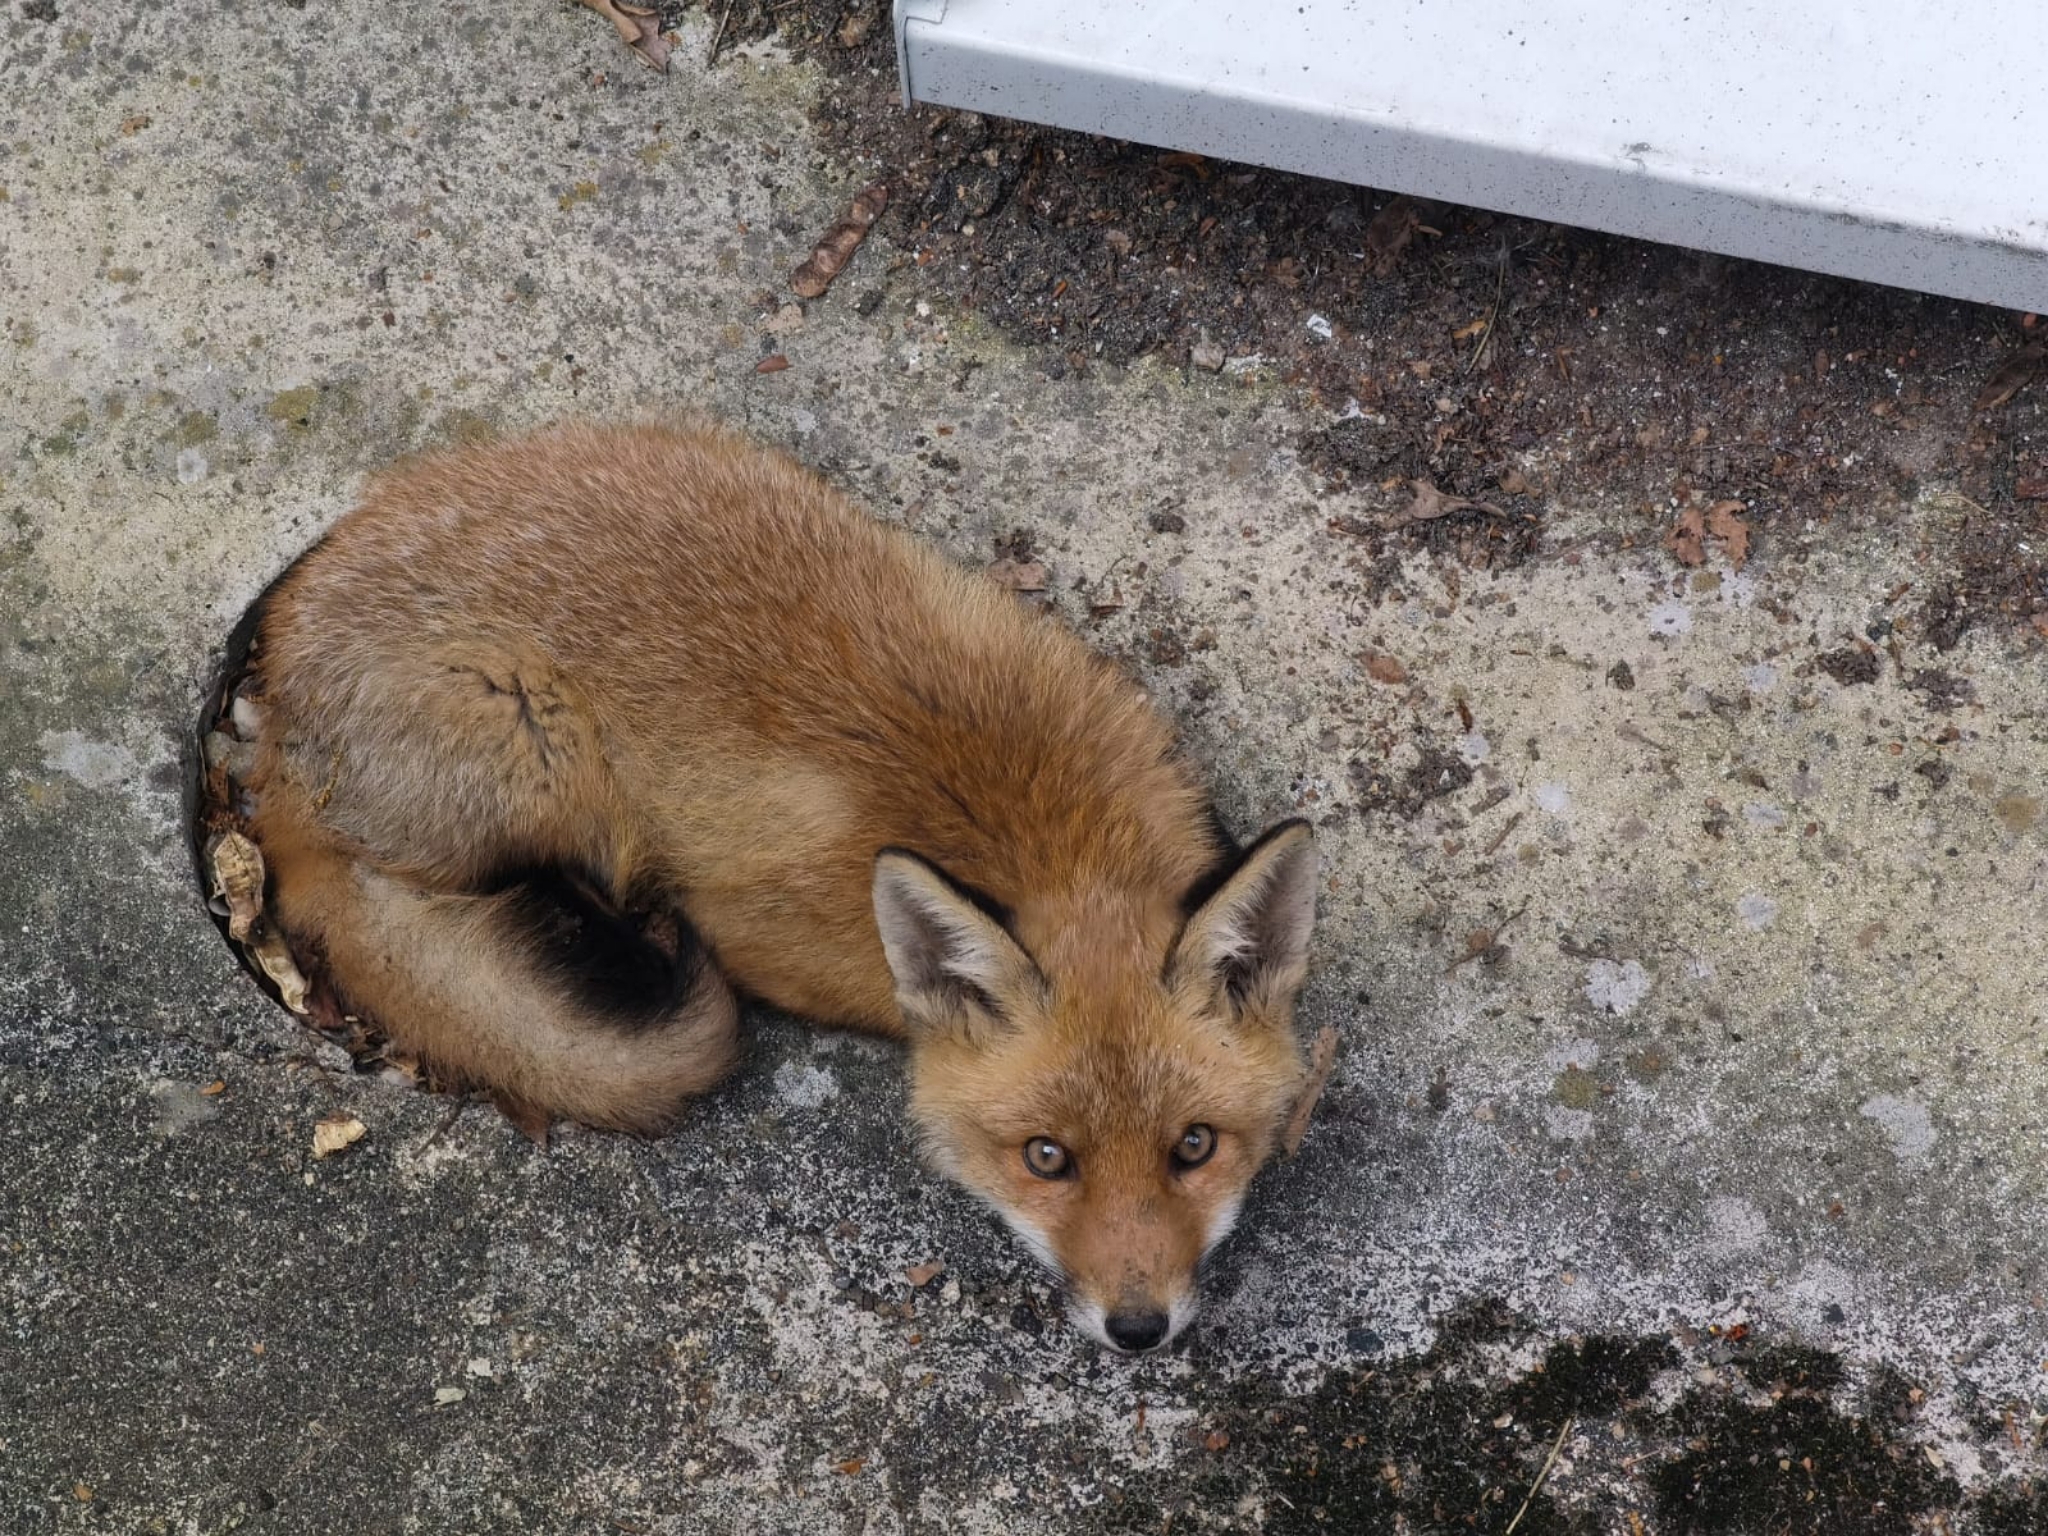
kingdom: Animalia
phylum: Chordata
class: Mammalia
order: Carnivora
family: Canidae
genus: Vulpes
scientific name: Vulpes vulpes
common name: Red fox
